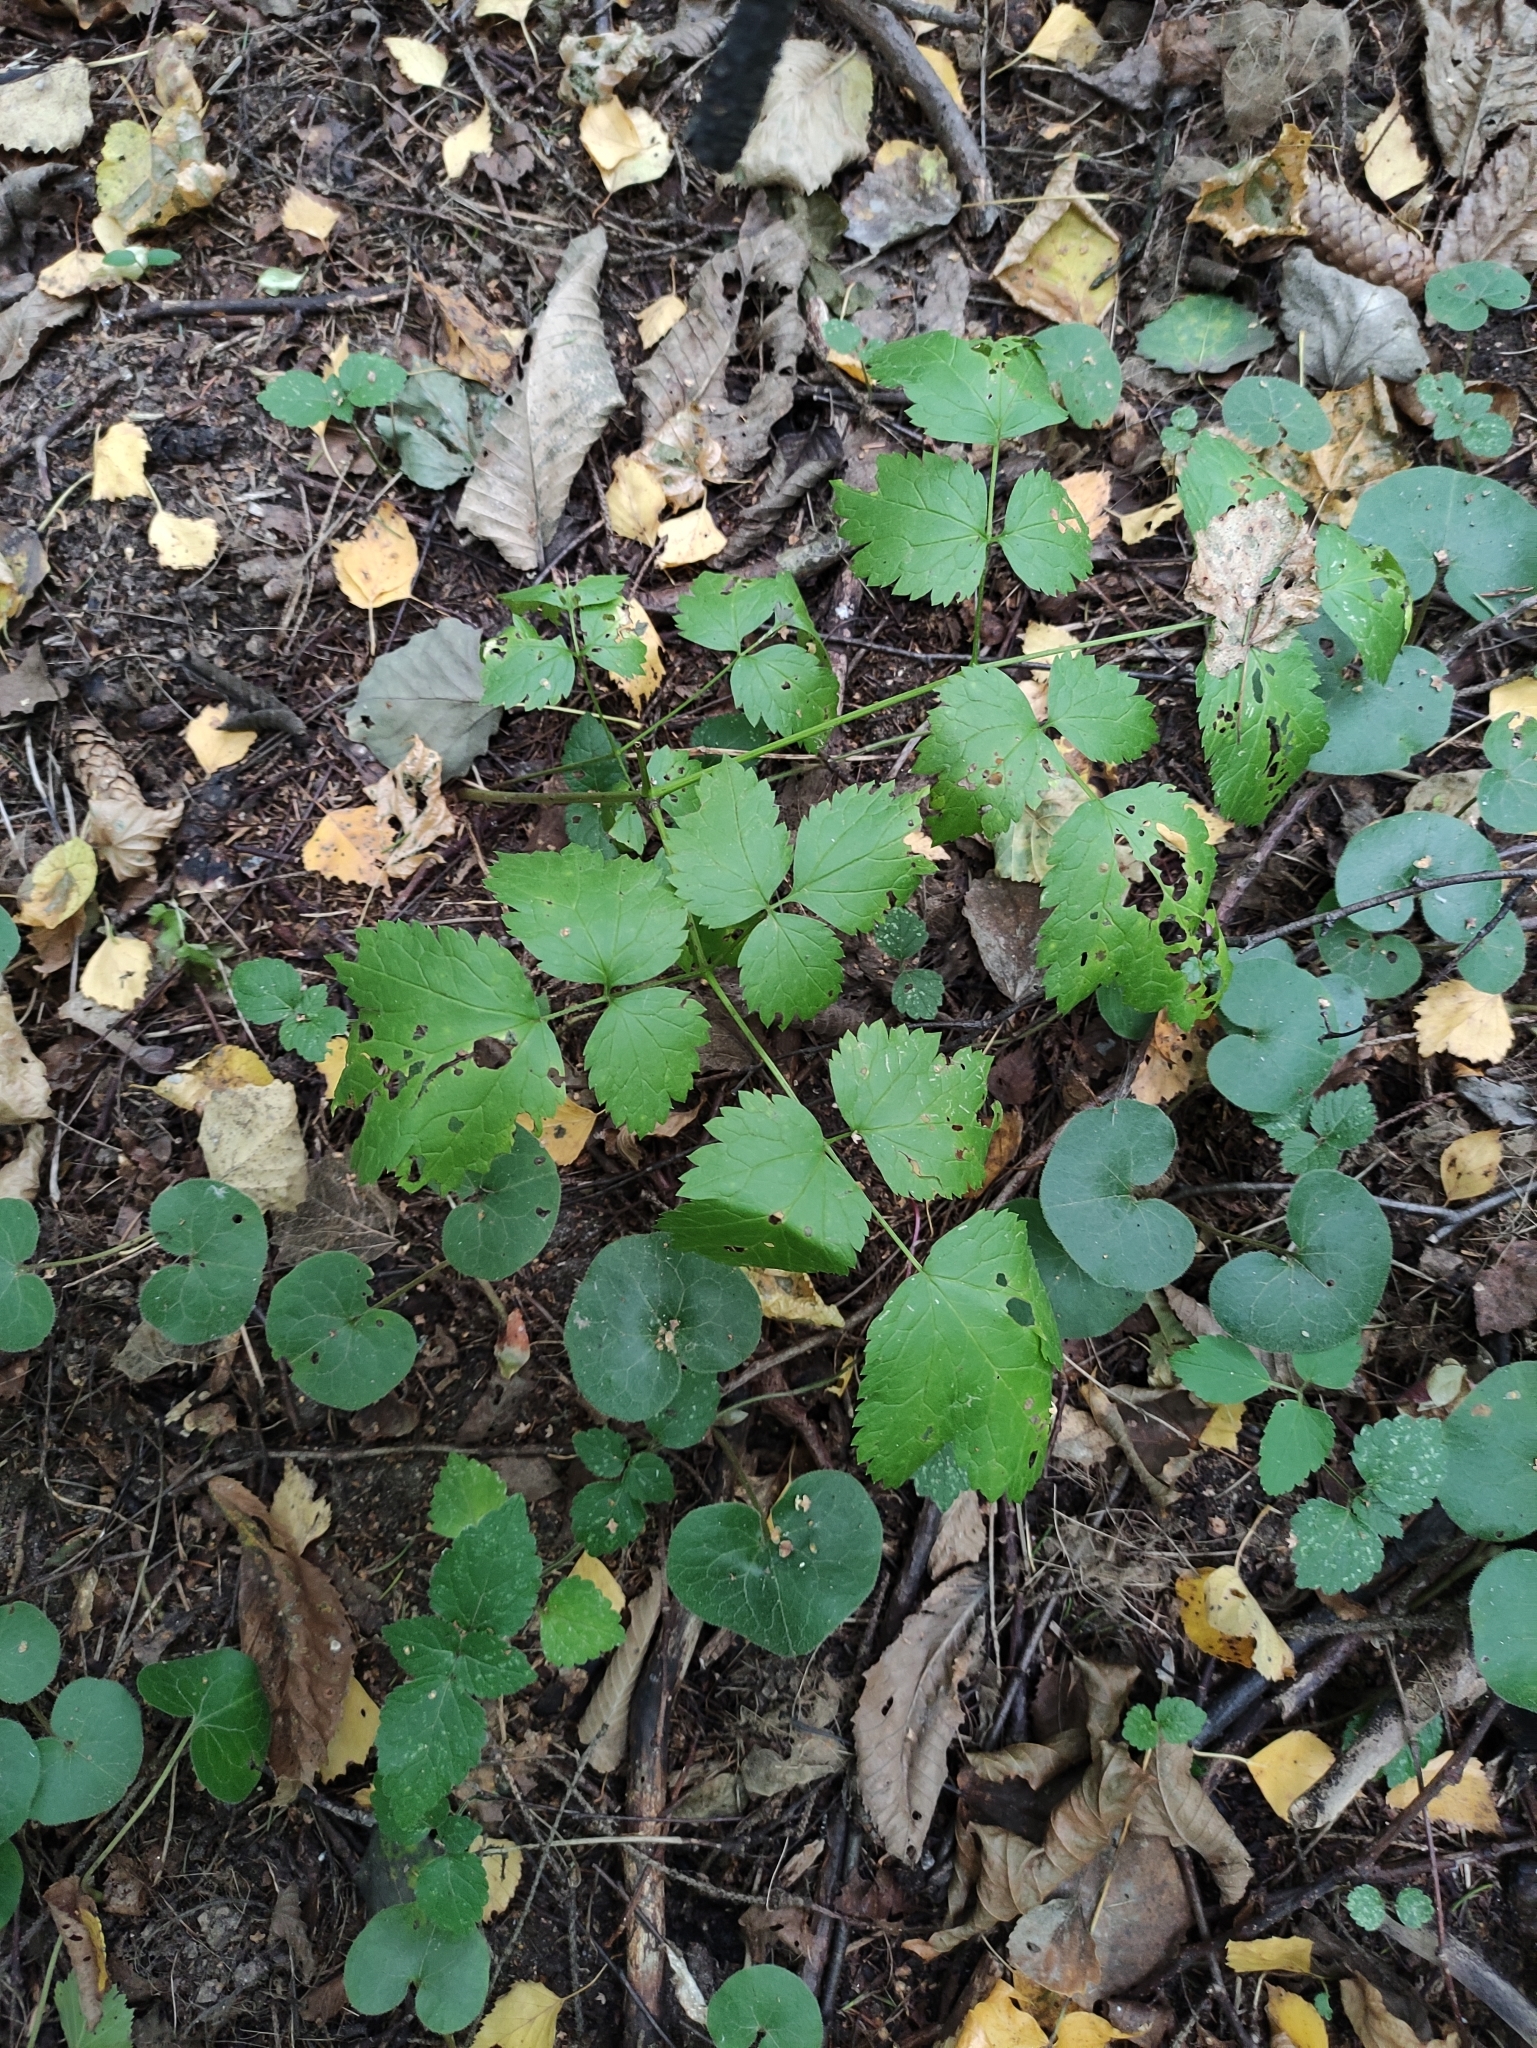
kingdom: Plantae
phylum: Tracheophyta
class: Magnoliopsida
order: Ranunculales
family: Ranunculaceae
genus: Actaea
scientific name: Actaea spicata
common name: Baneberry
